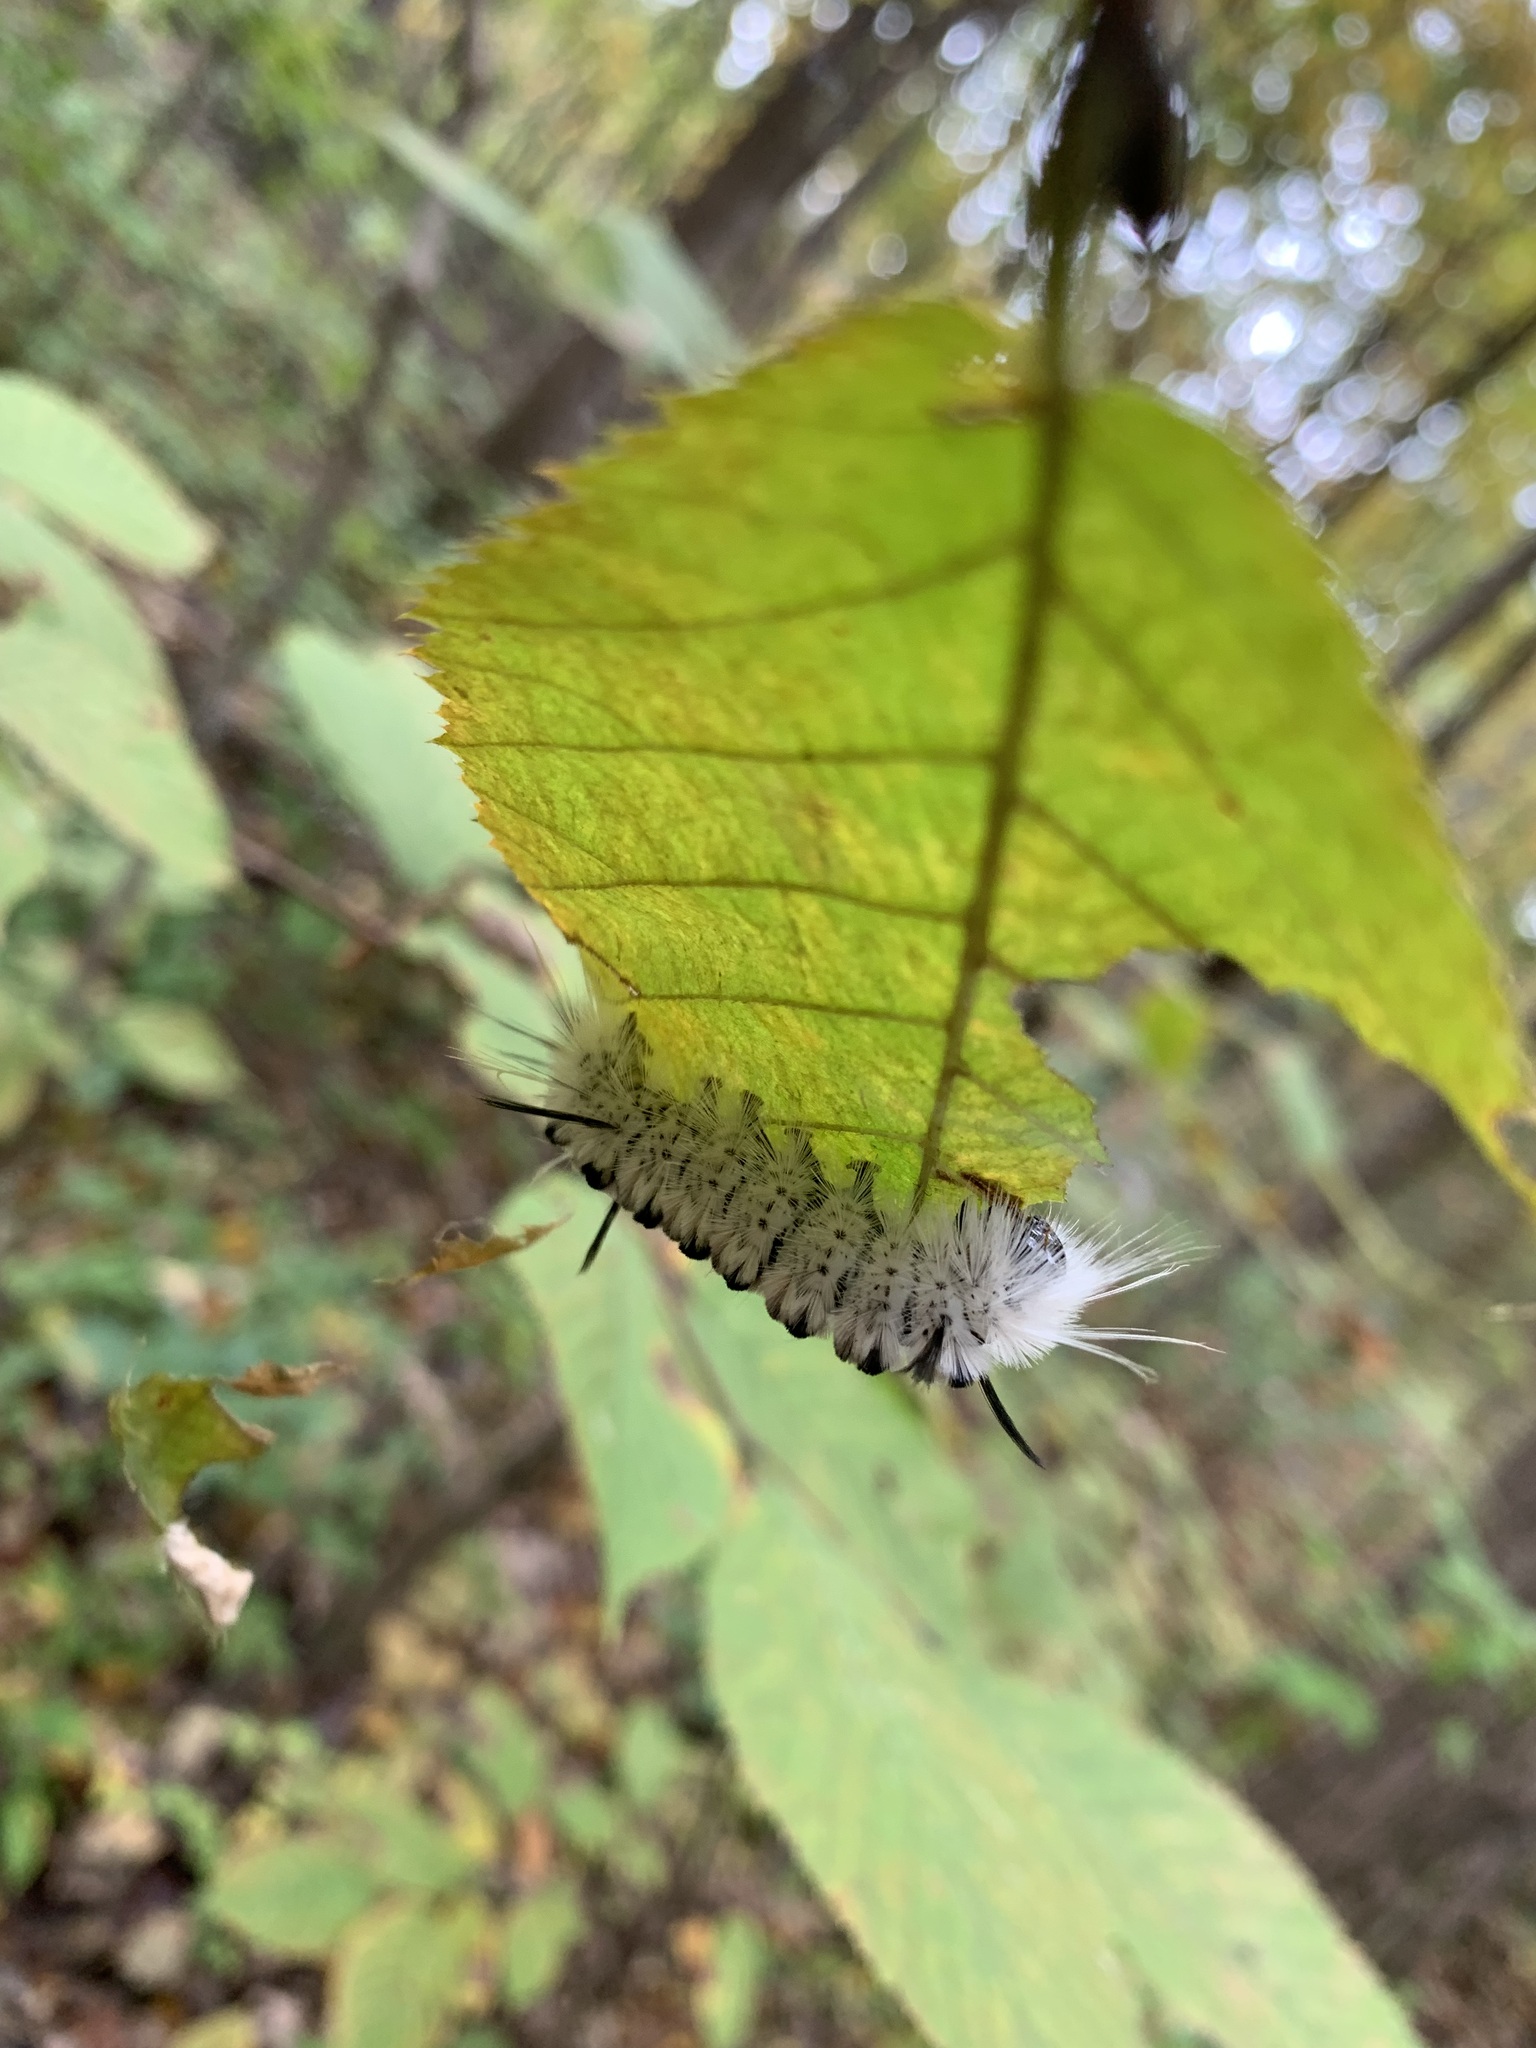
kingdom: Animalia
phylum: Arthropoda
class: Insecta
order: Lepidoptera
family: Erebidae
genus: Lophocampa
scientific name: Lophocampa caryae
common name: Hickory tussock moth
